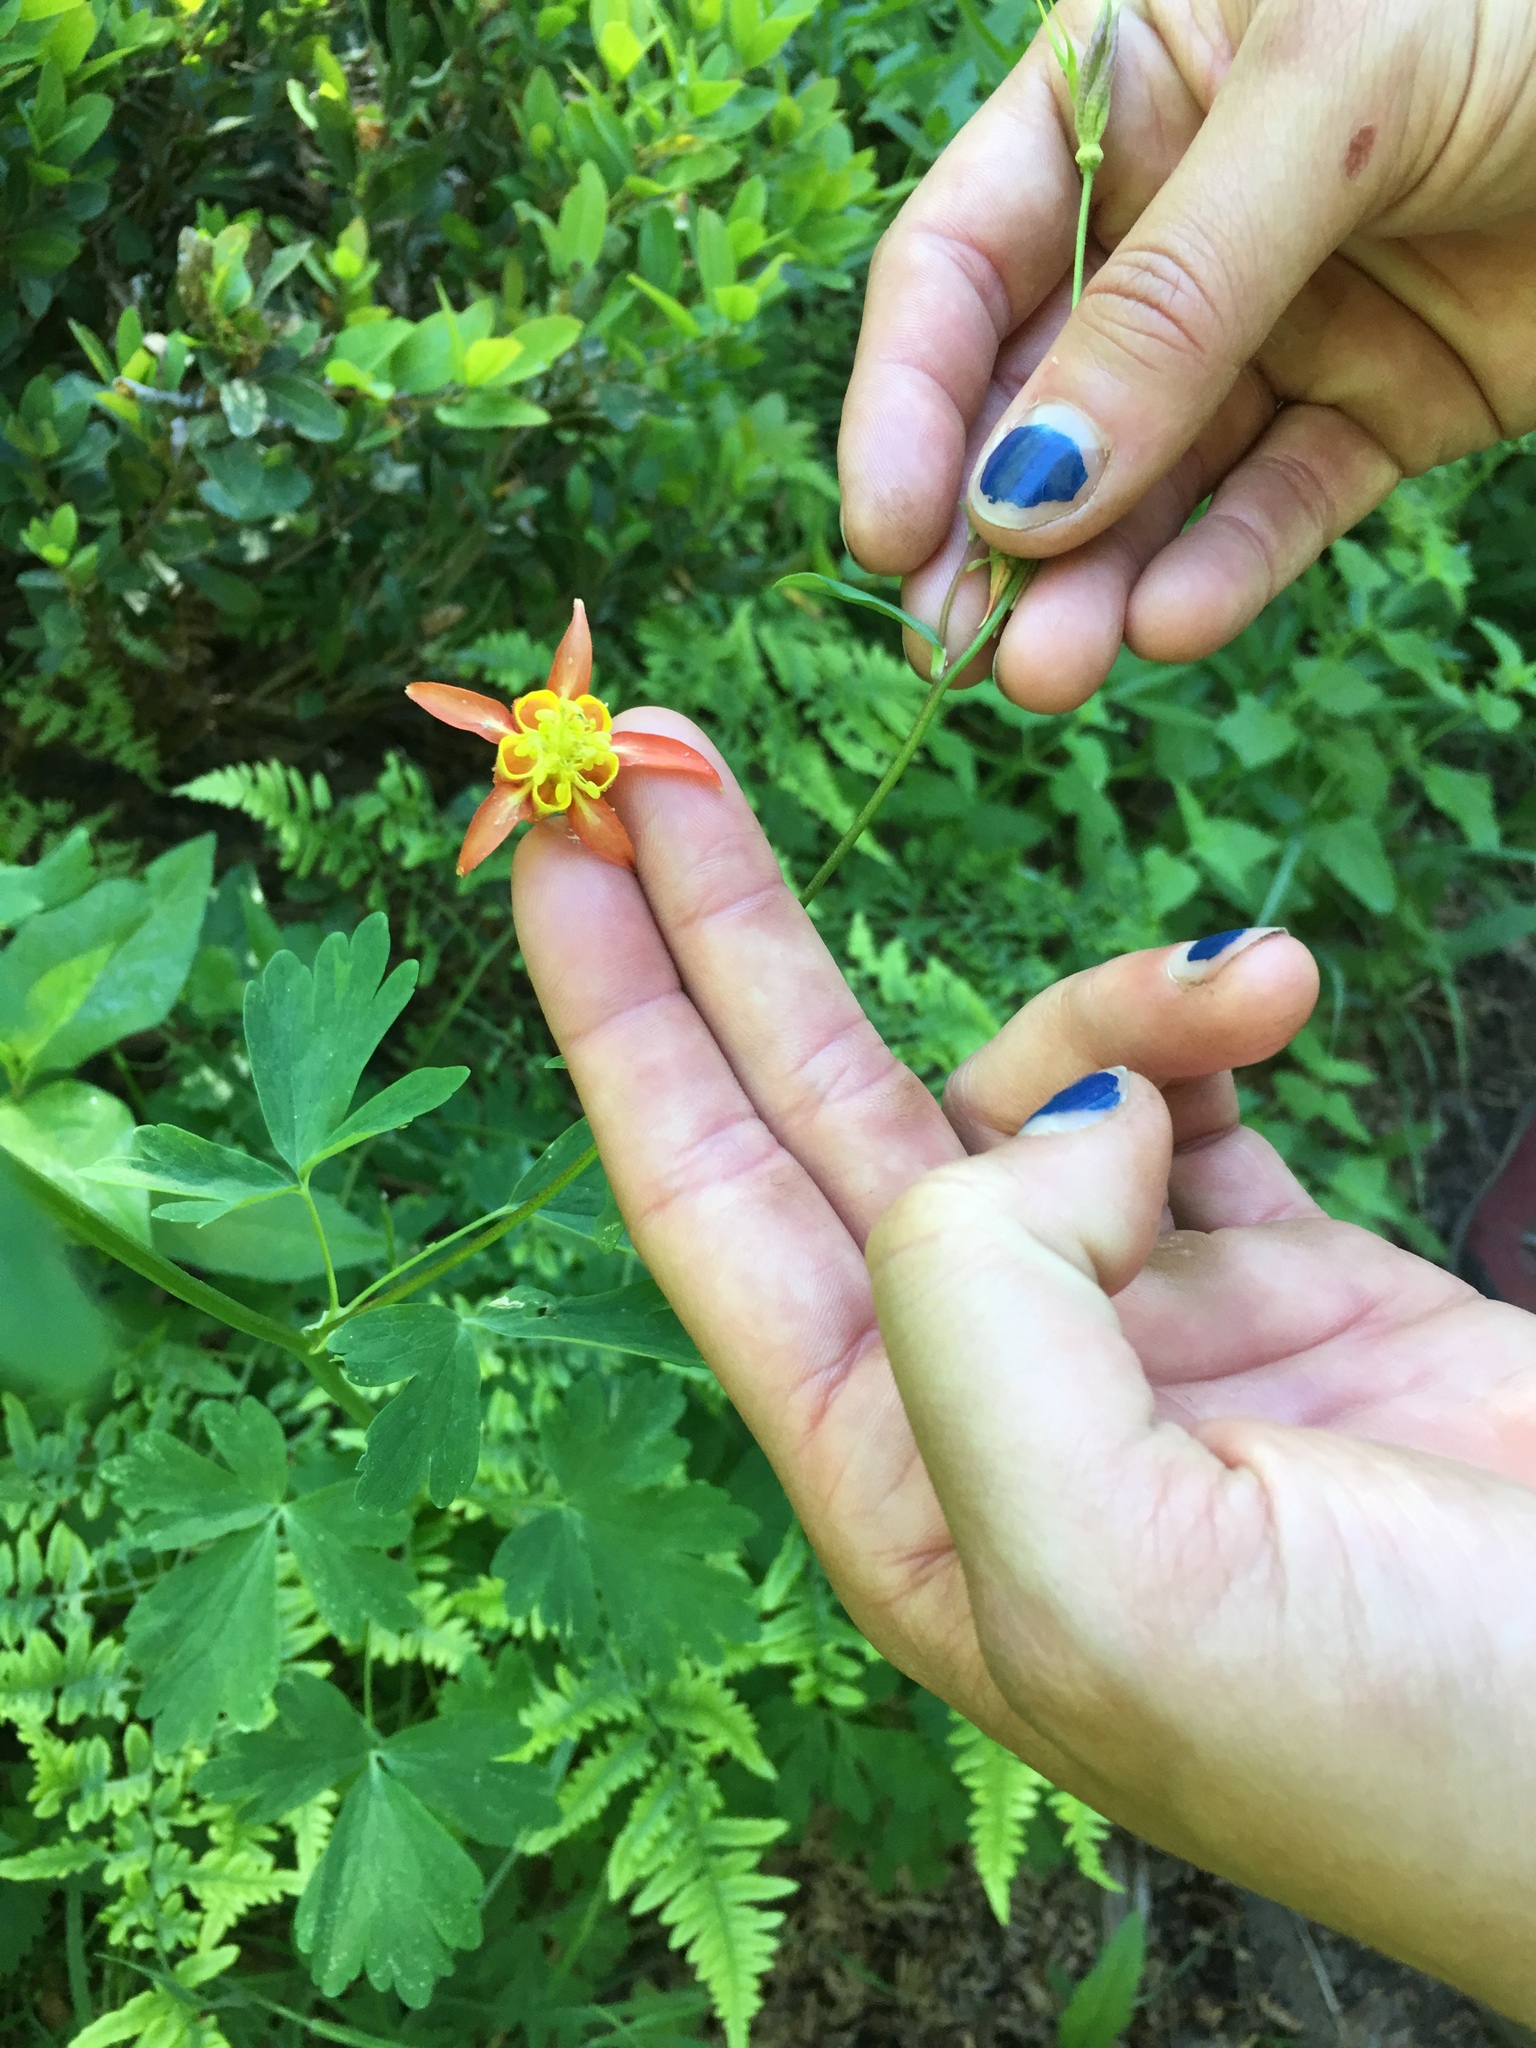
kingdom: Plantae
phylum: Tracheophyta
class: Magnoliopsida
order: Ranunculales
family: Ranunculaceae
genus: Aquilegia
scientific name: Aquilegia formosa
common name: Sitka columbine
